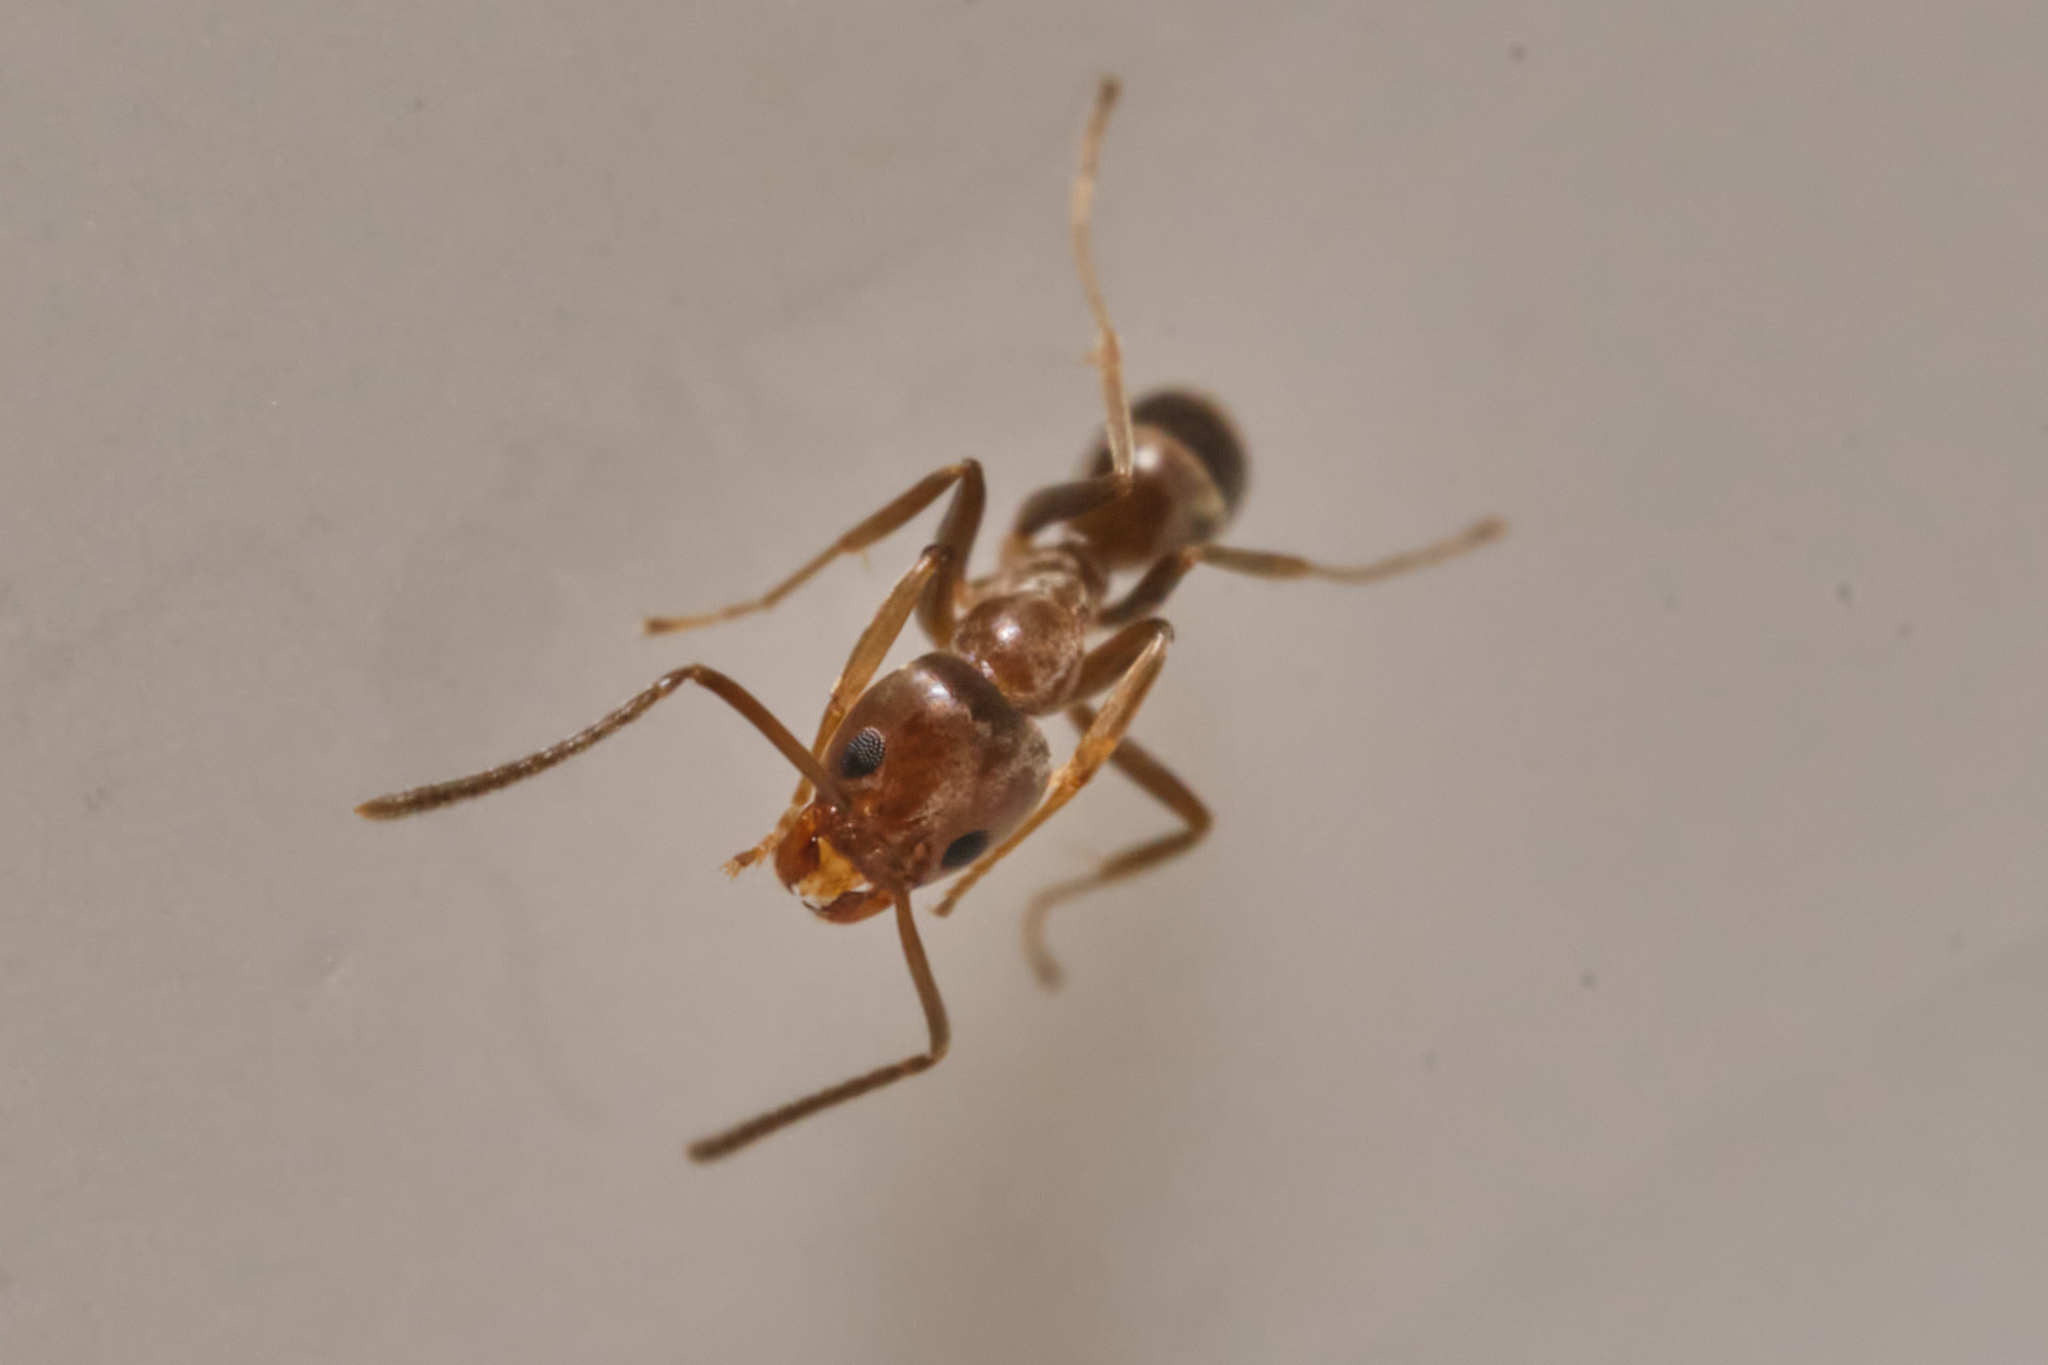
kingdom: Animalia
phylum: Arthropoda
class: Insecta
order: Hymenoptera
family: Formicidae
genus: Linepithema
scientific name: Linepithema humile
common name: Argentine ant
